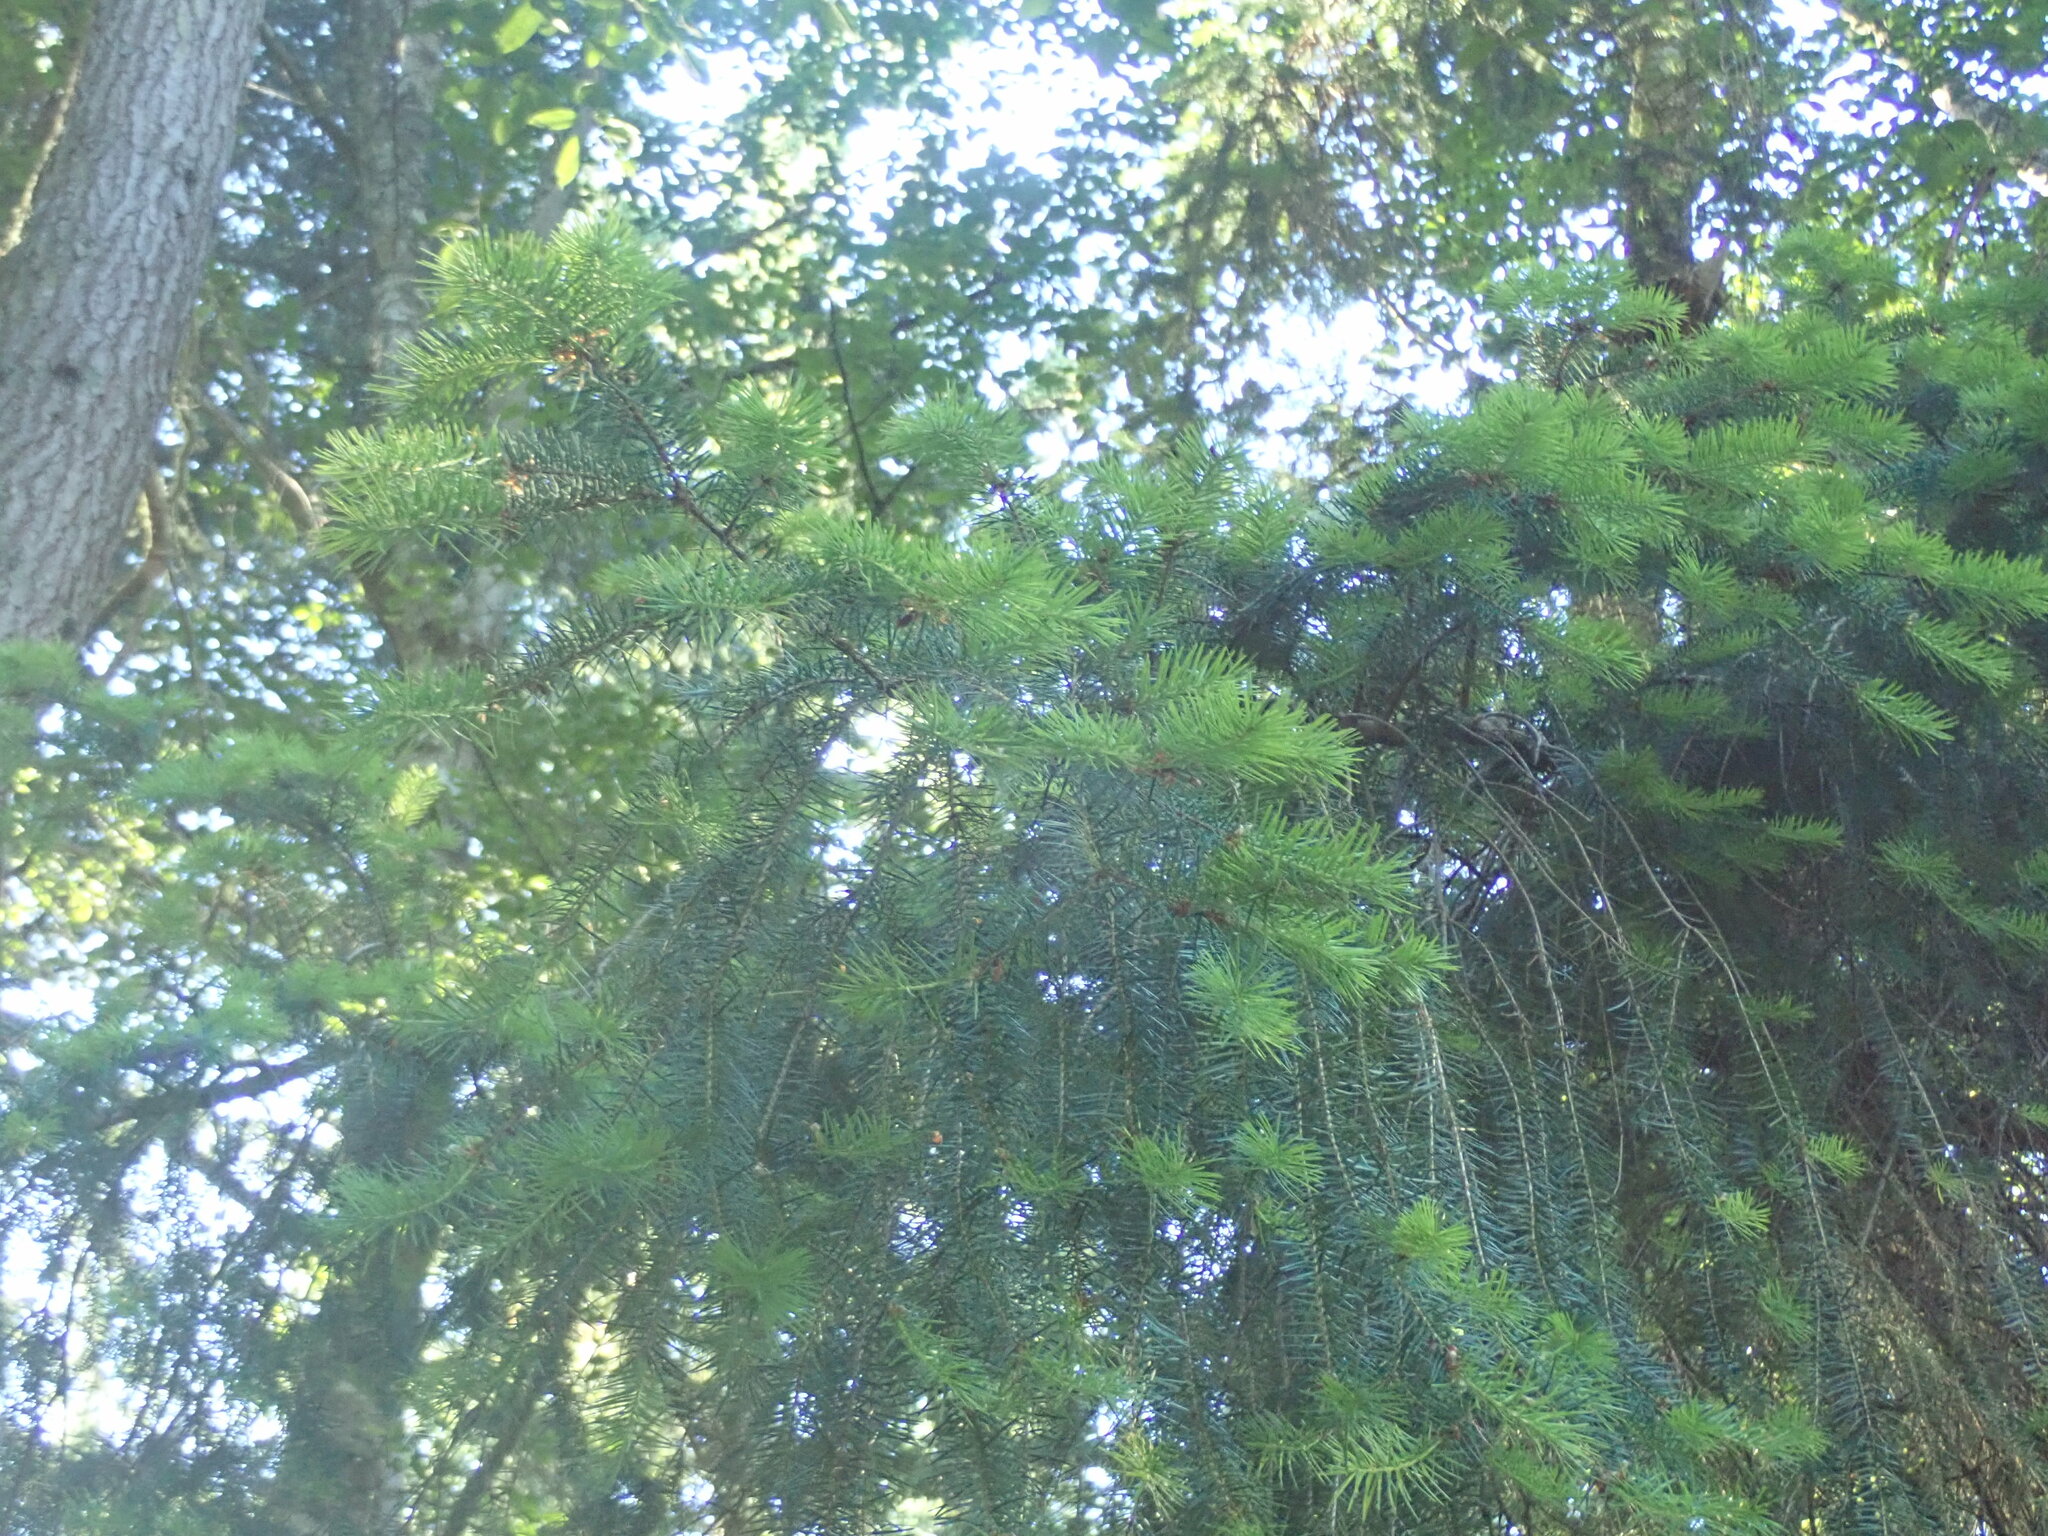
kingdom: Plantae
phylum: Tracheophyta
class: Pinopsida
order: Pinales
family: Pinaceae
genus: Pseudotsuga
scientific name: Pseudotsuga menziesii
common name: Douglas fir
